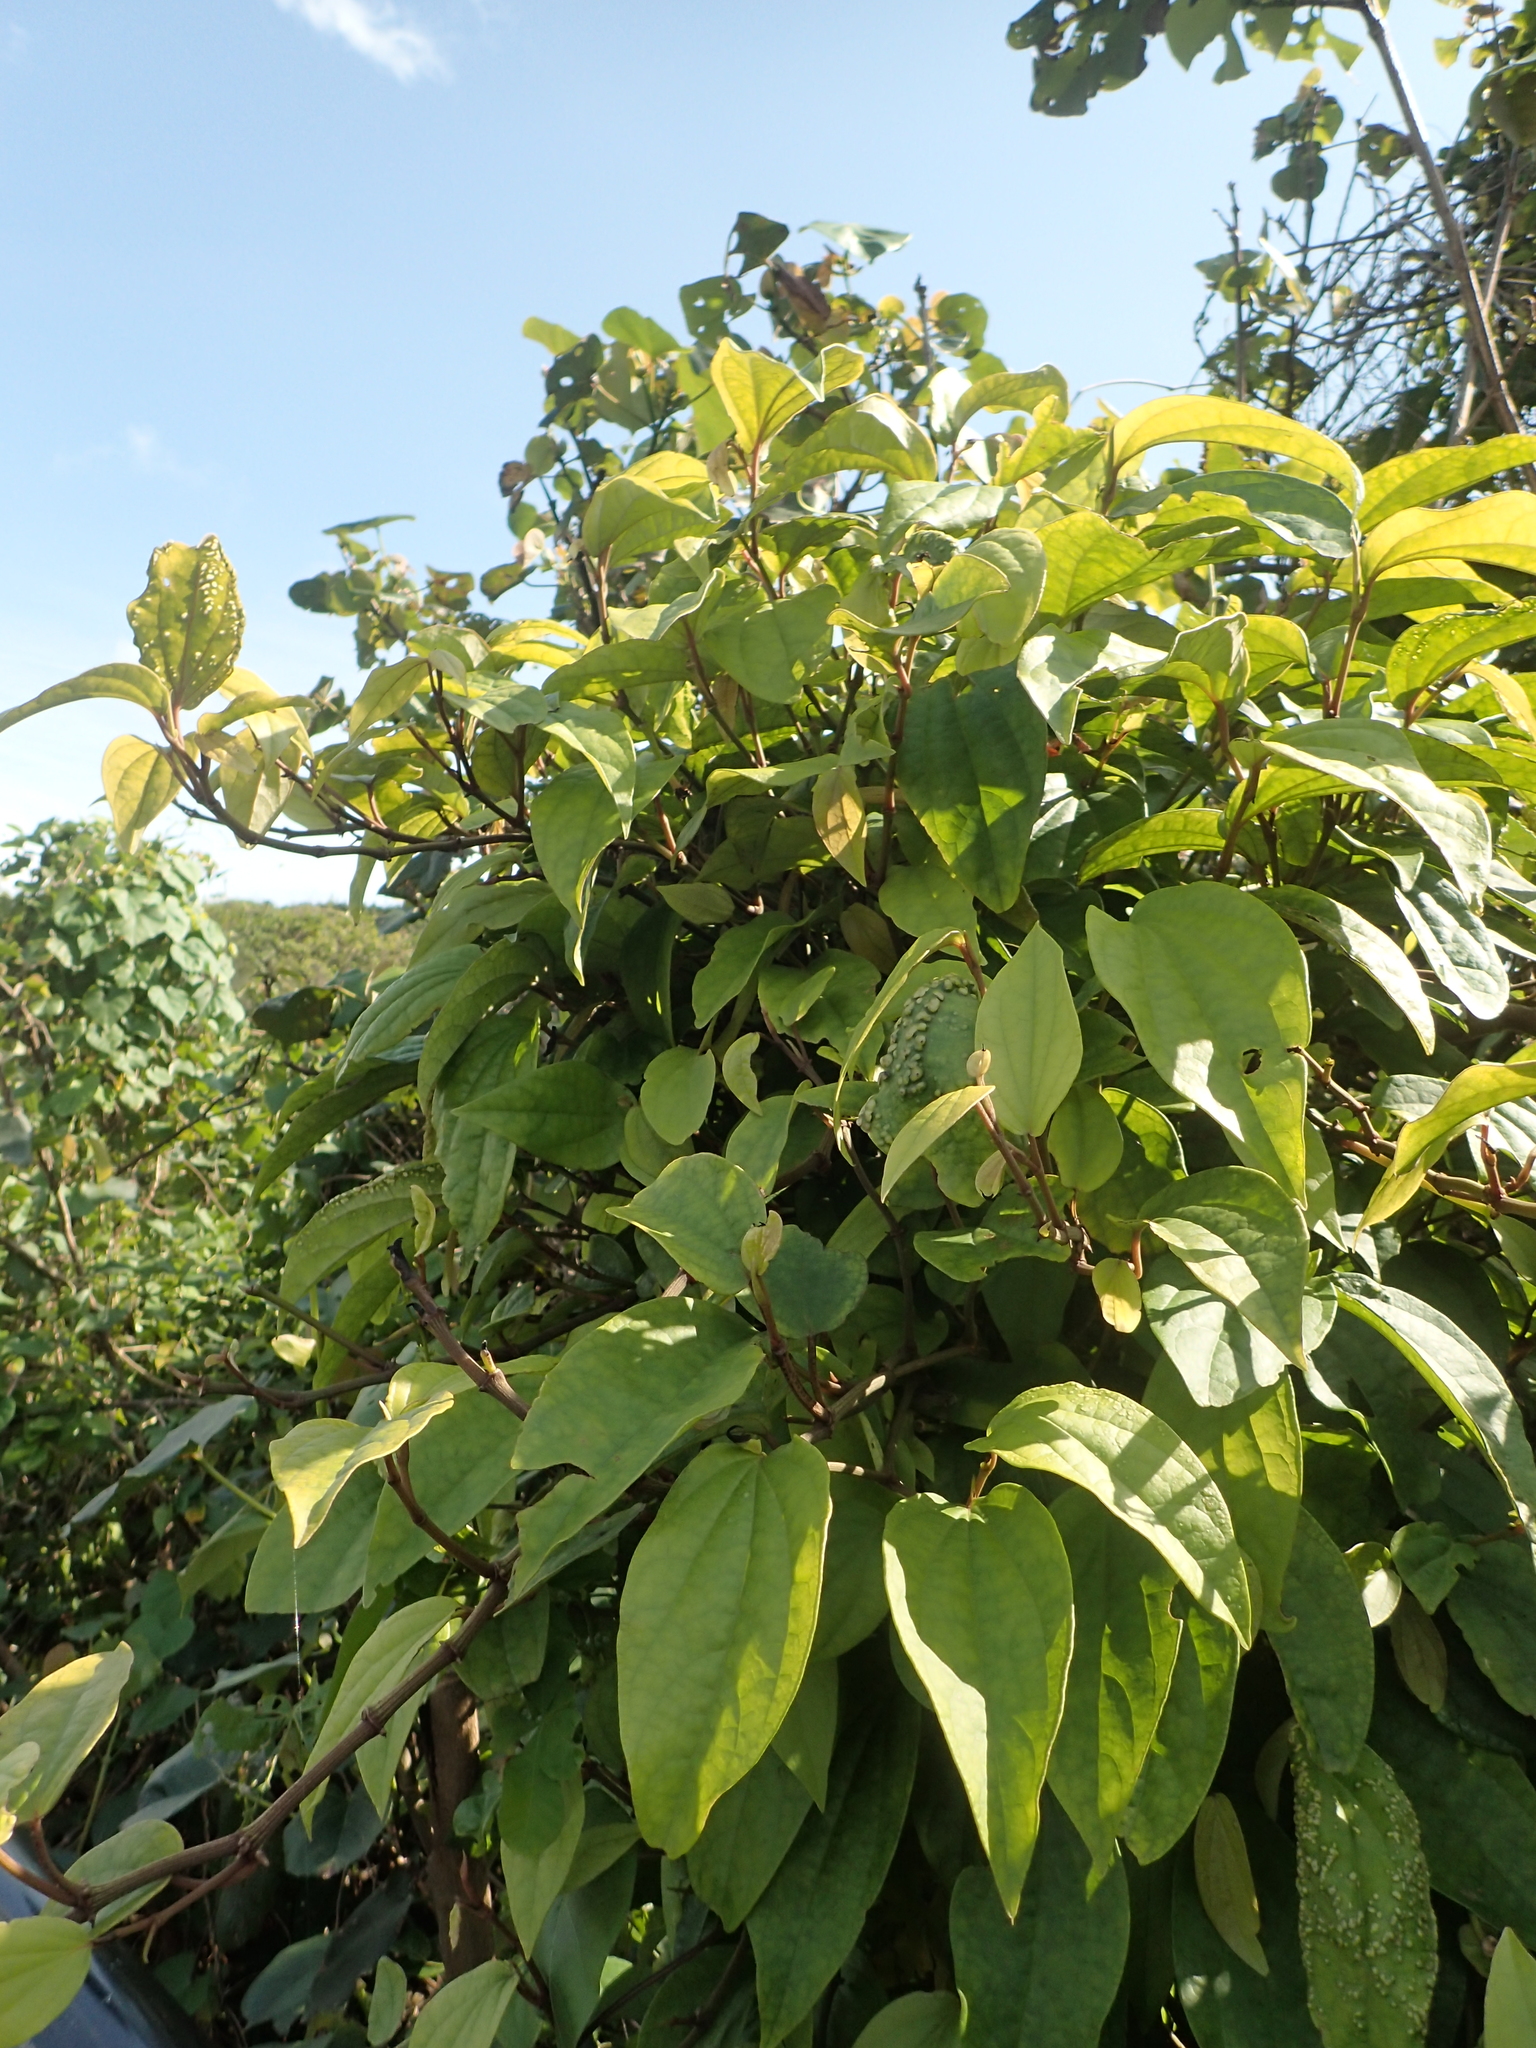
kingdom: Plantae
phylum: Tracheophyta
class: Magnoliopsida
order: Piperales
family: Piperaceae
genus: Piper
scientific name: Piper kadsura
